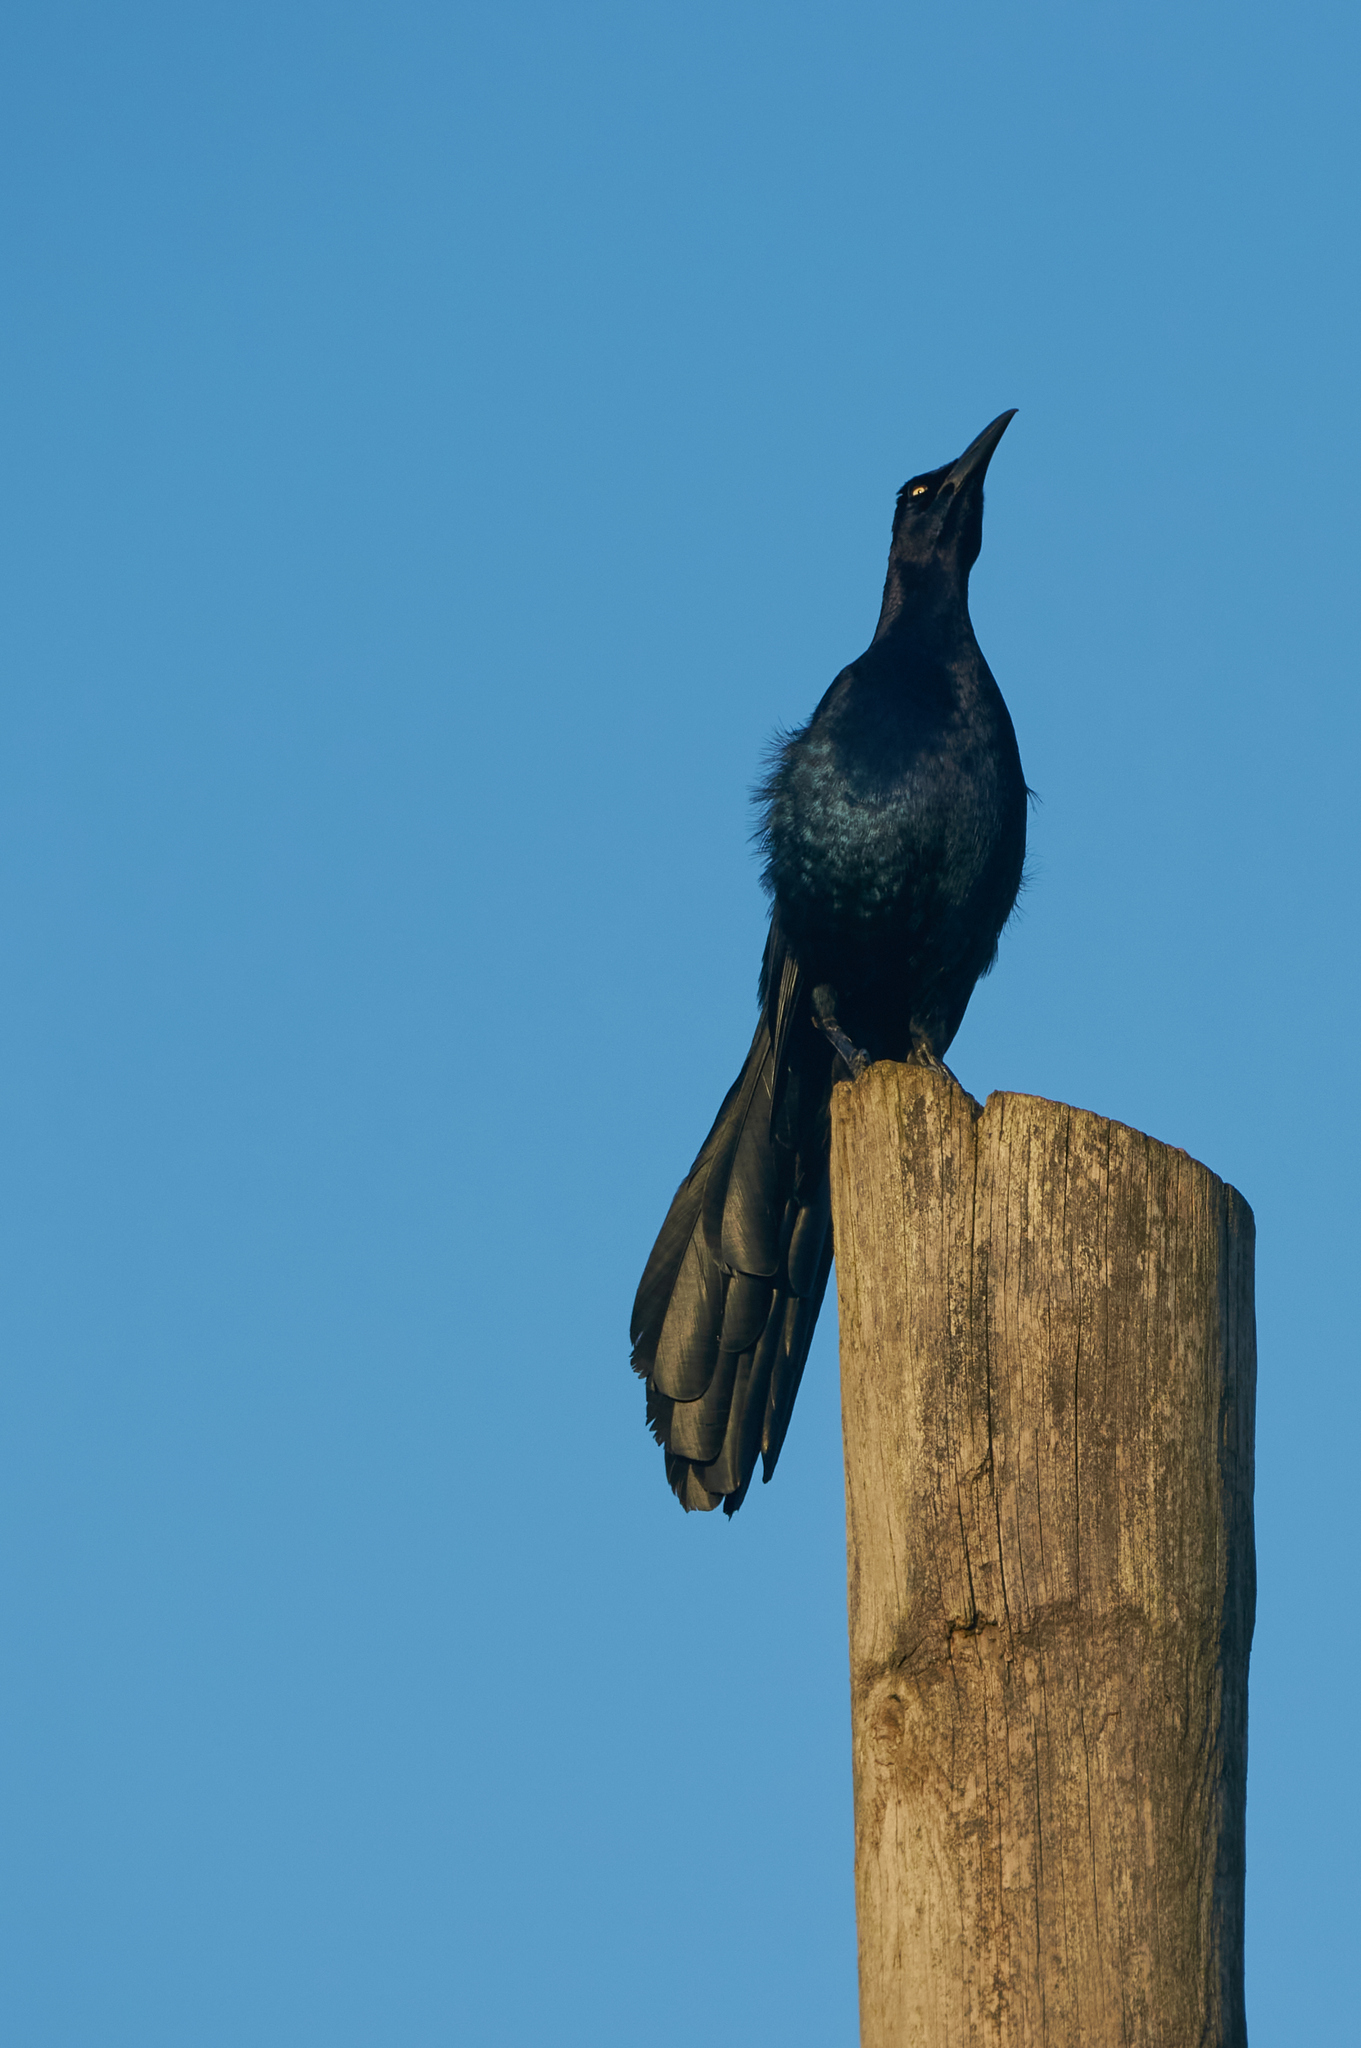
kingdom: Animalia
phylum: Chordata
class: Aves
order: Passeriformes
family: Icteridae
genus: Quiscalus
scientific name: Quiscalus mexicanus
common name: Great-tailed grackle
